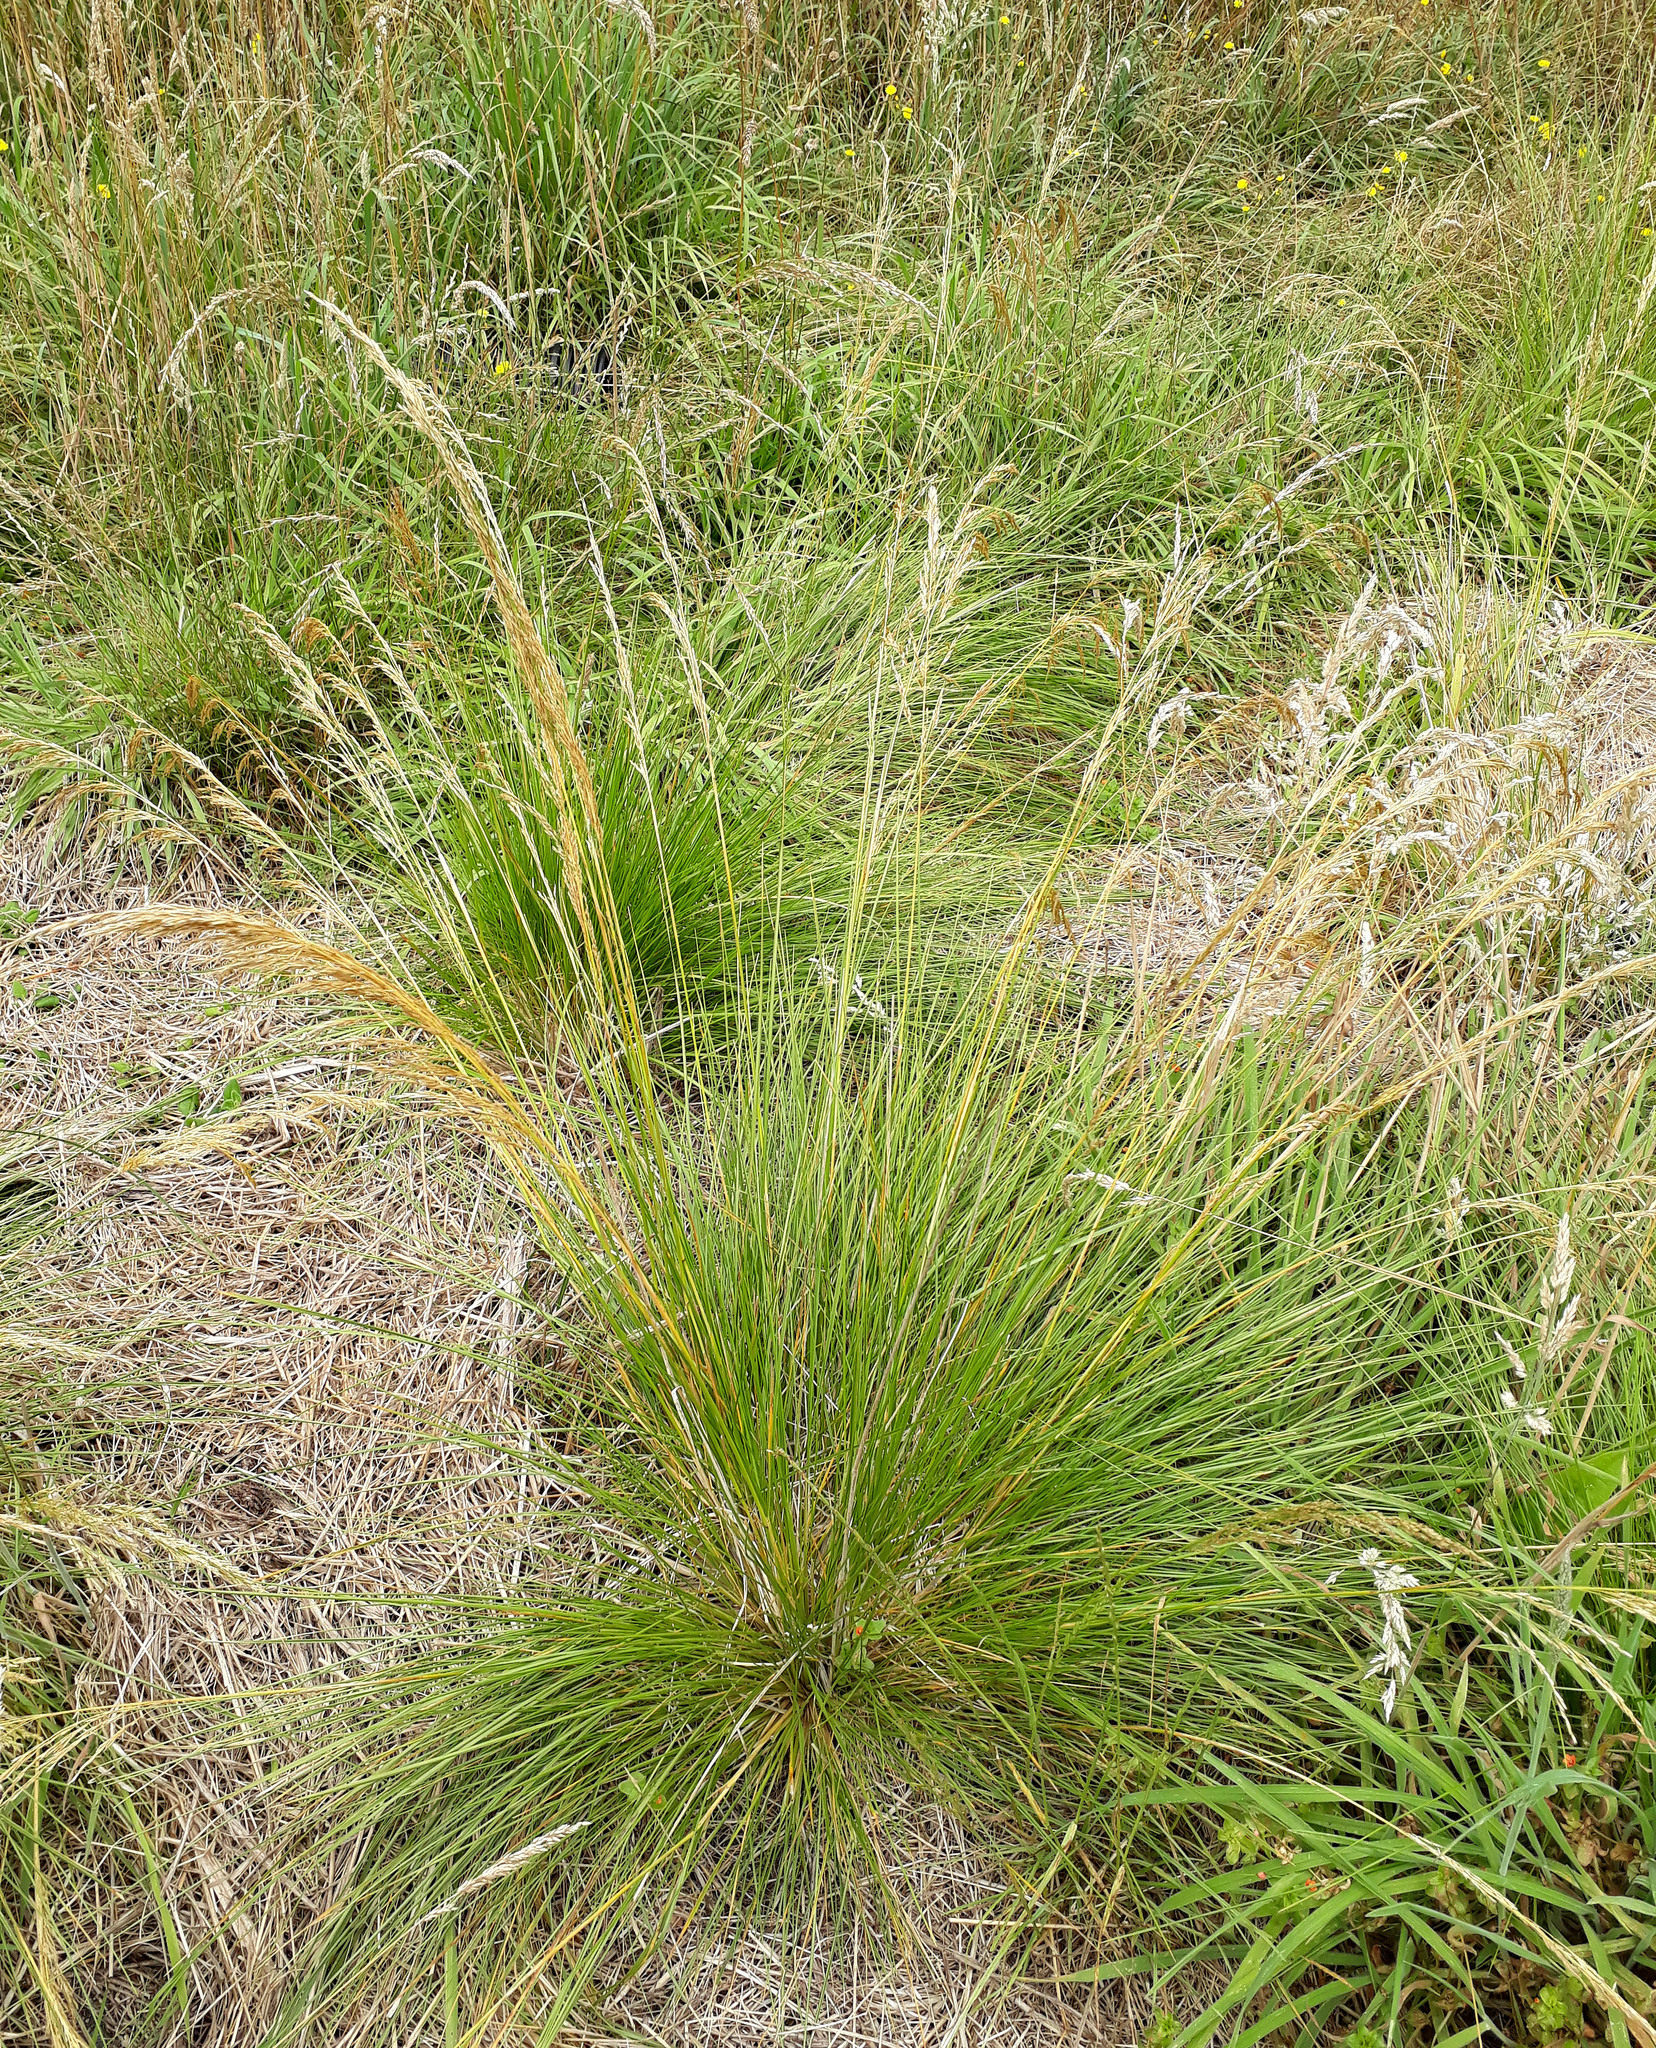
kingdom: Plantae
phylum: Tracheophyta
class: Liliopsida
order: Poales
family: Poaceae
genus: Deschampsia
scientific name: Deschampsia cespitosa
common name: Tufted hair-grass
